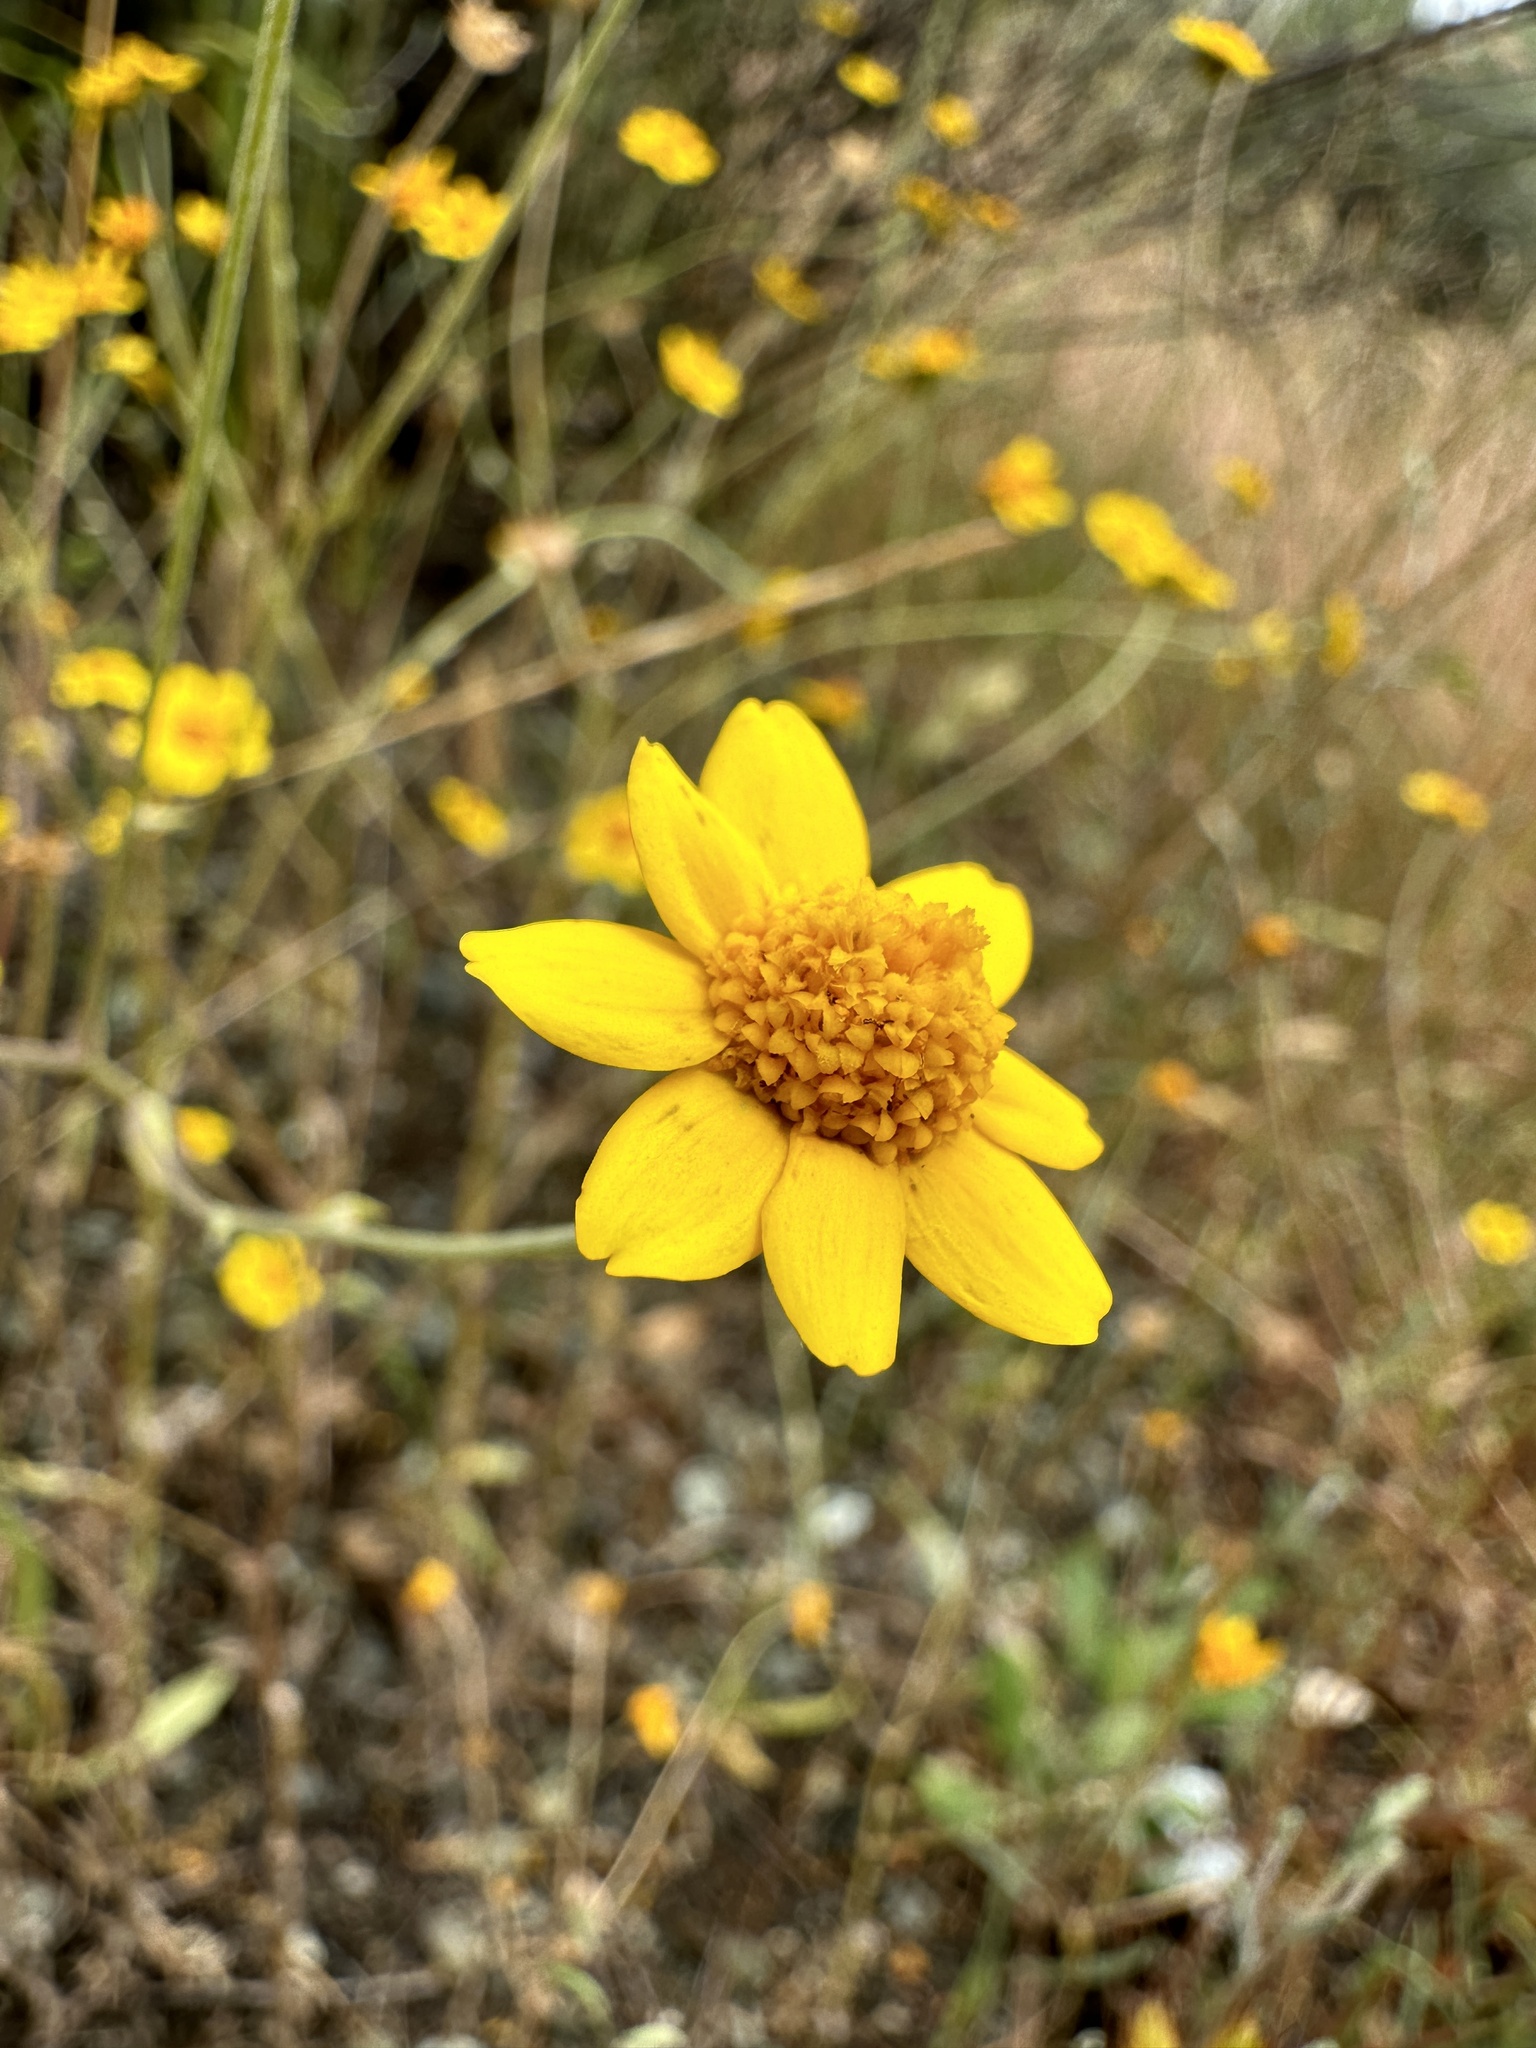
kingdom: Plantae
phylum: Tracheophyta
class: Magnoliopsida
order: Asterales
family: Asteraceae
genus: Monolopia
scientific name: Monolopia gracilens
